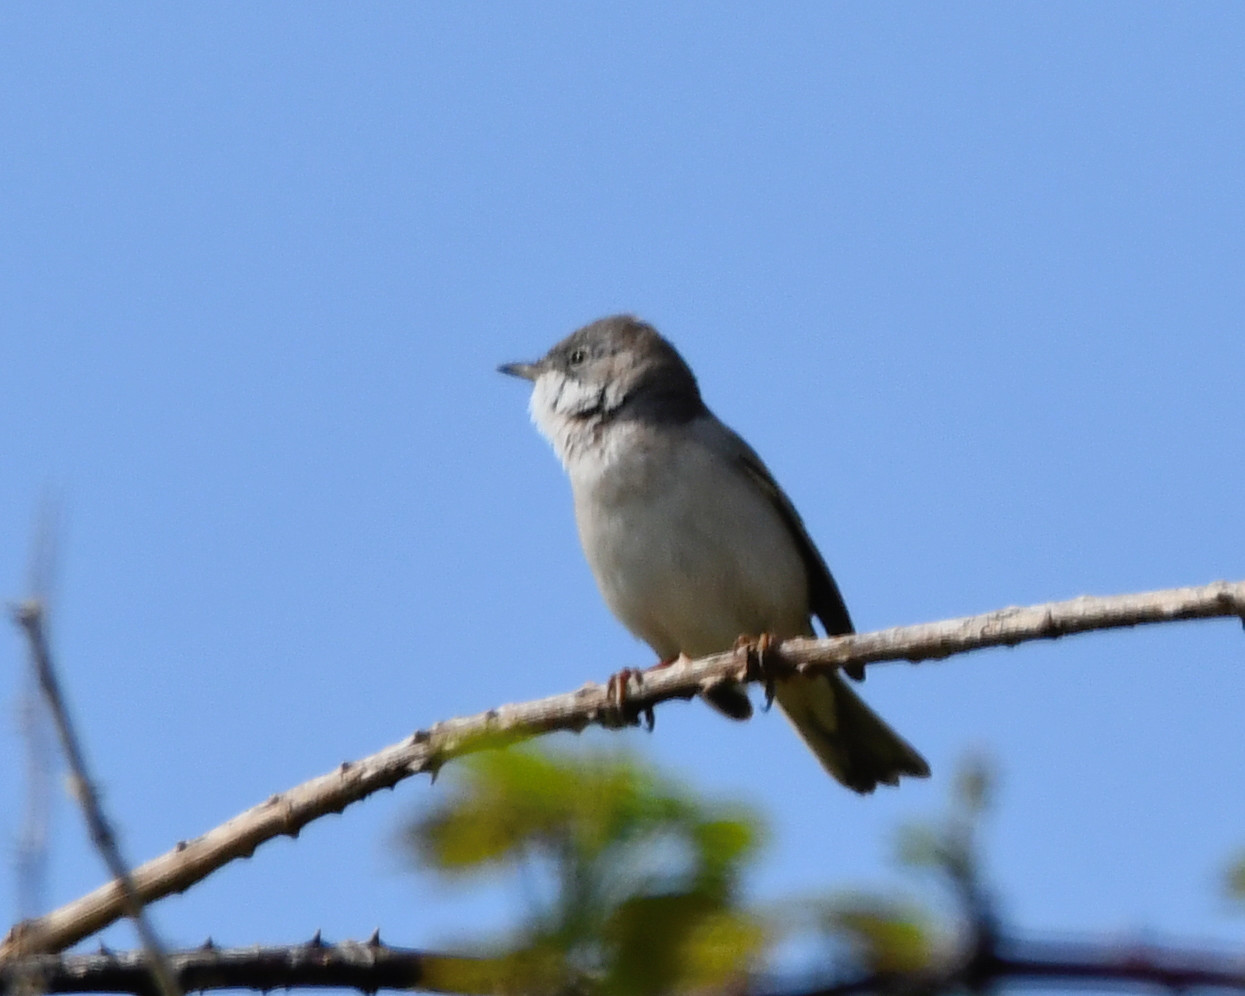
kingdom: Animalia
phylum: Chordata
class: Aves
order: Passeriformes
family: Sylviidae
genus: Sylvia
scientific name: Sylvia communis
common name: Common whitethroat
